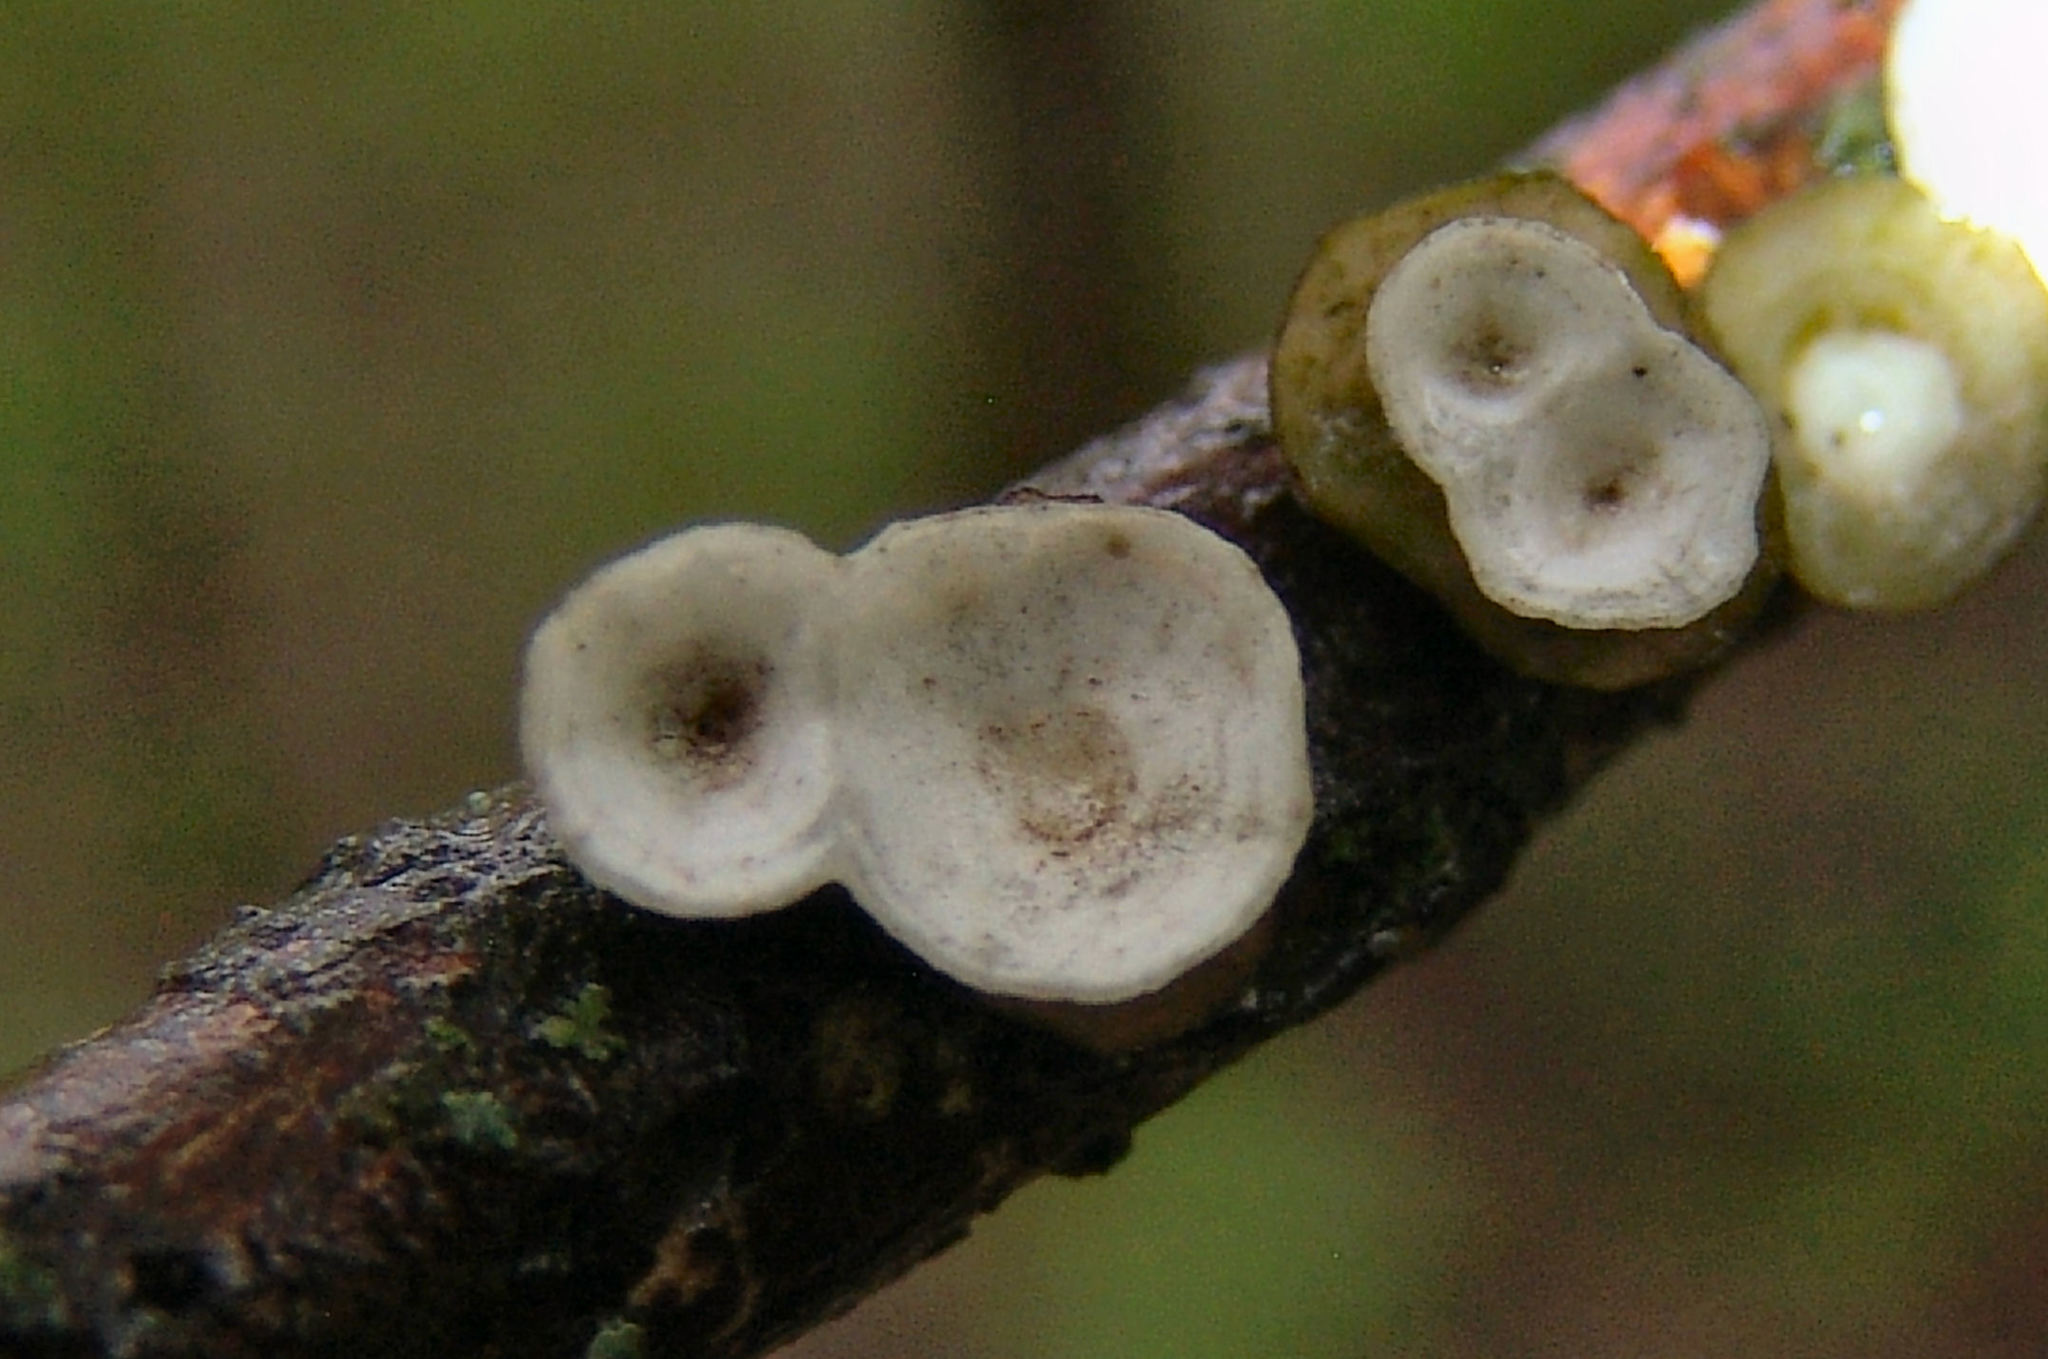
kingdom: Fungi
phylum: Basidiomycota
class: Agaricomycetes
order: Polyporales
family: Polyporaceae
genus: Poronidulus
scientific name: Poronidulus conchifer
